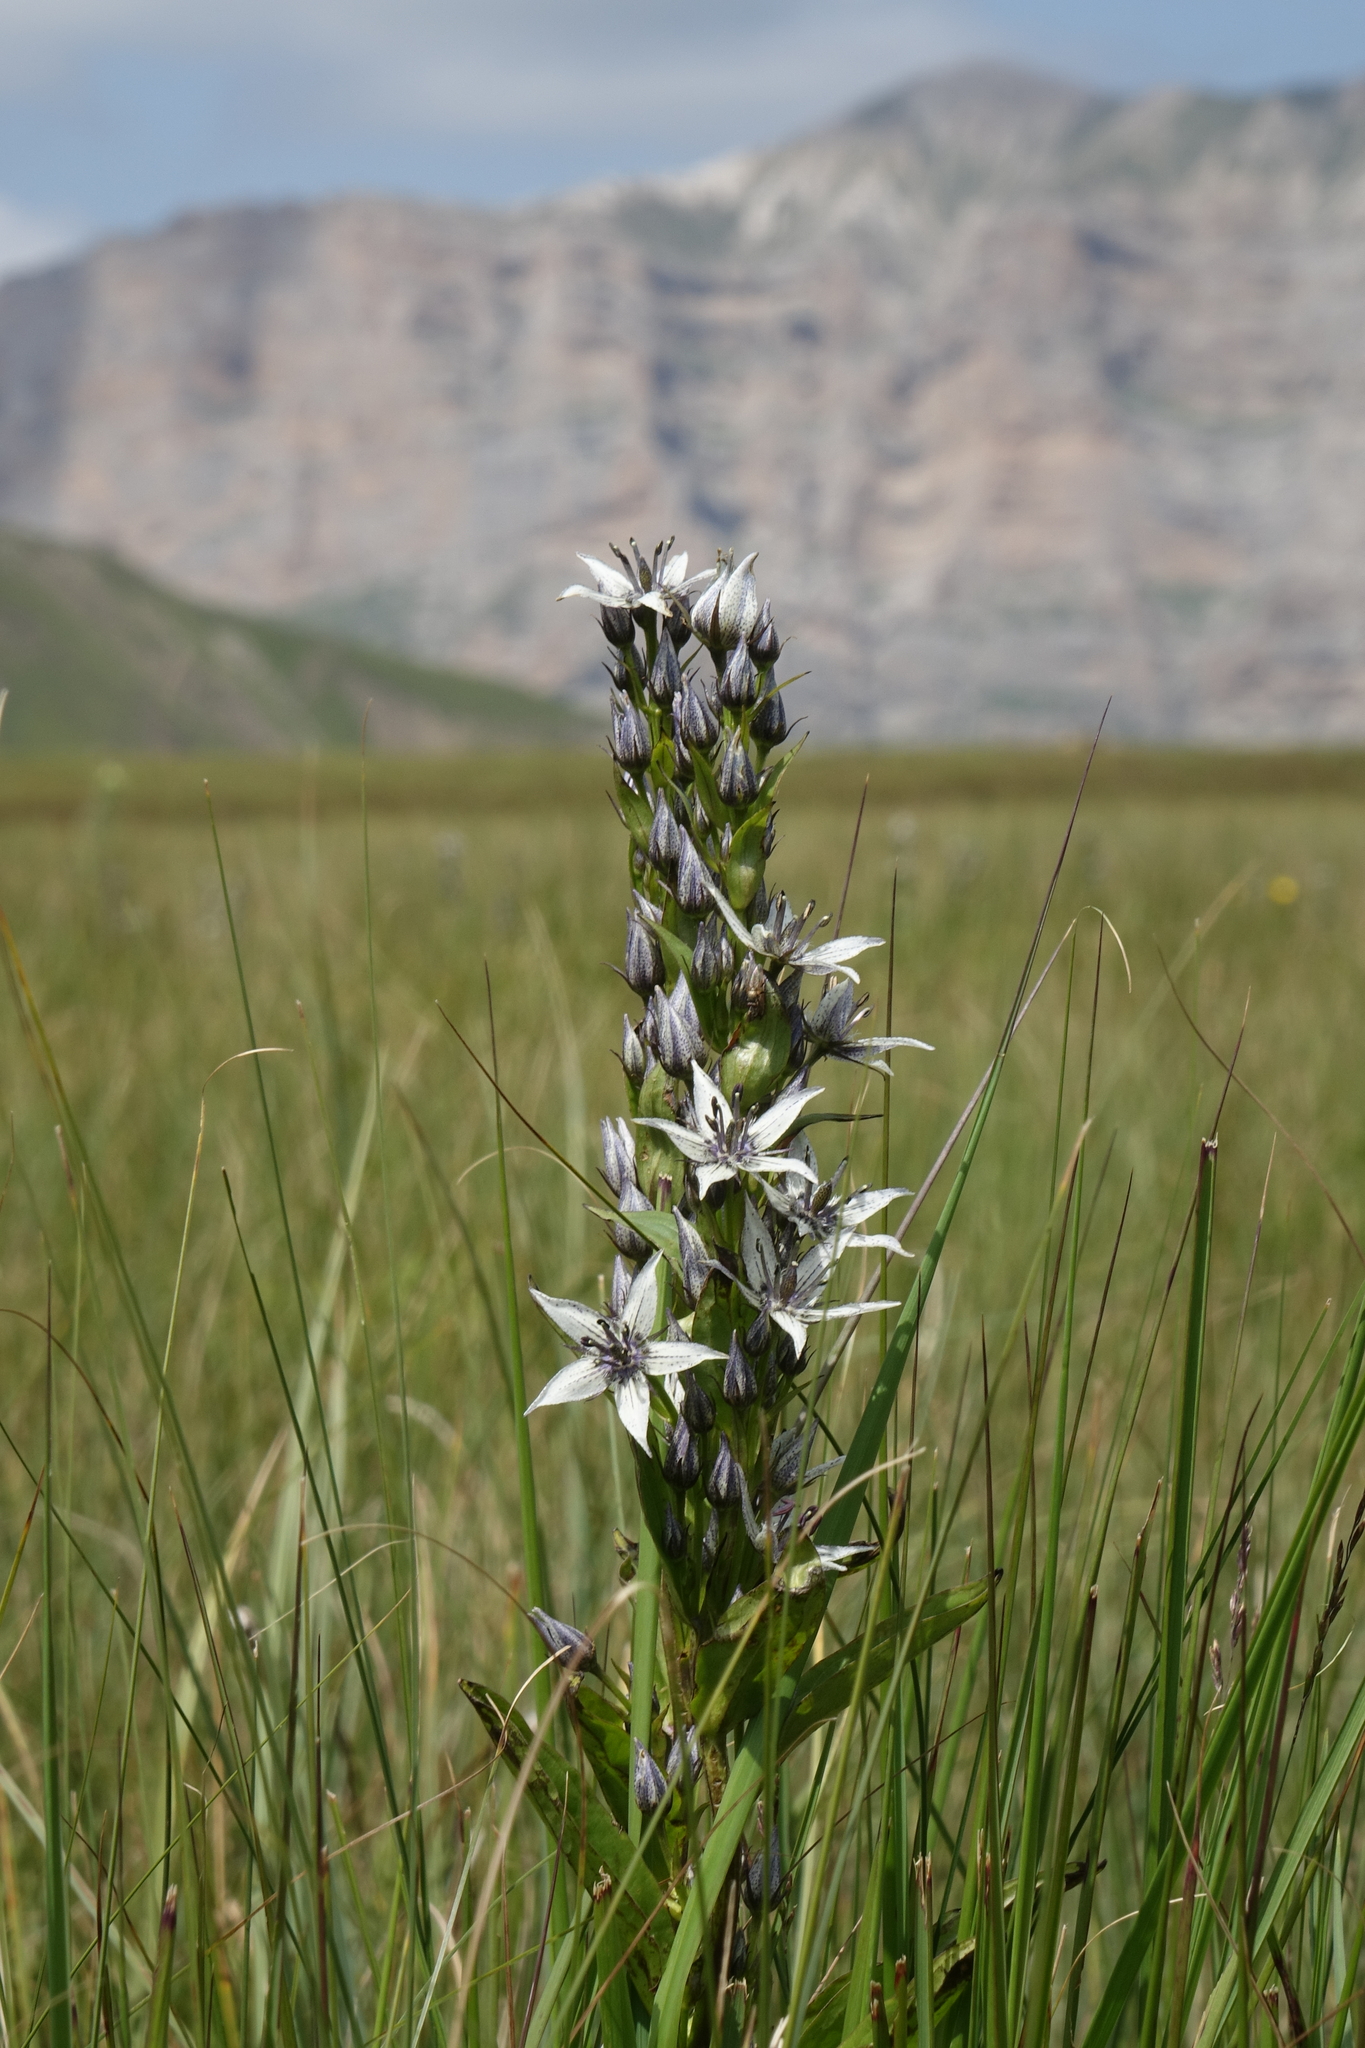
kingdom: Plantae
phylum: Tracheophyta
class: Magnoliopsida
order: Gentianales
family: Gentianaceae
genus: Swertia
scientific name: Swertia iberica
